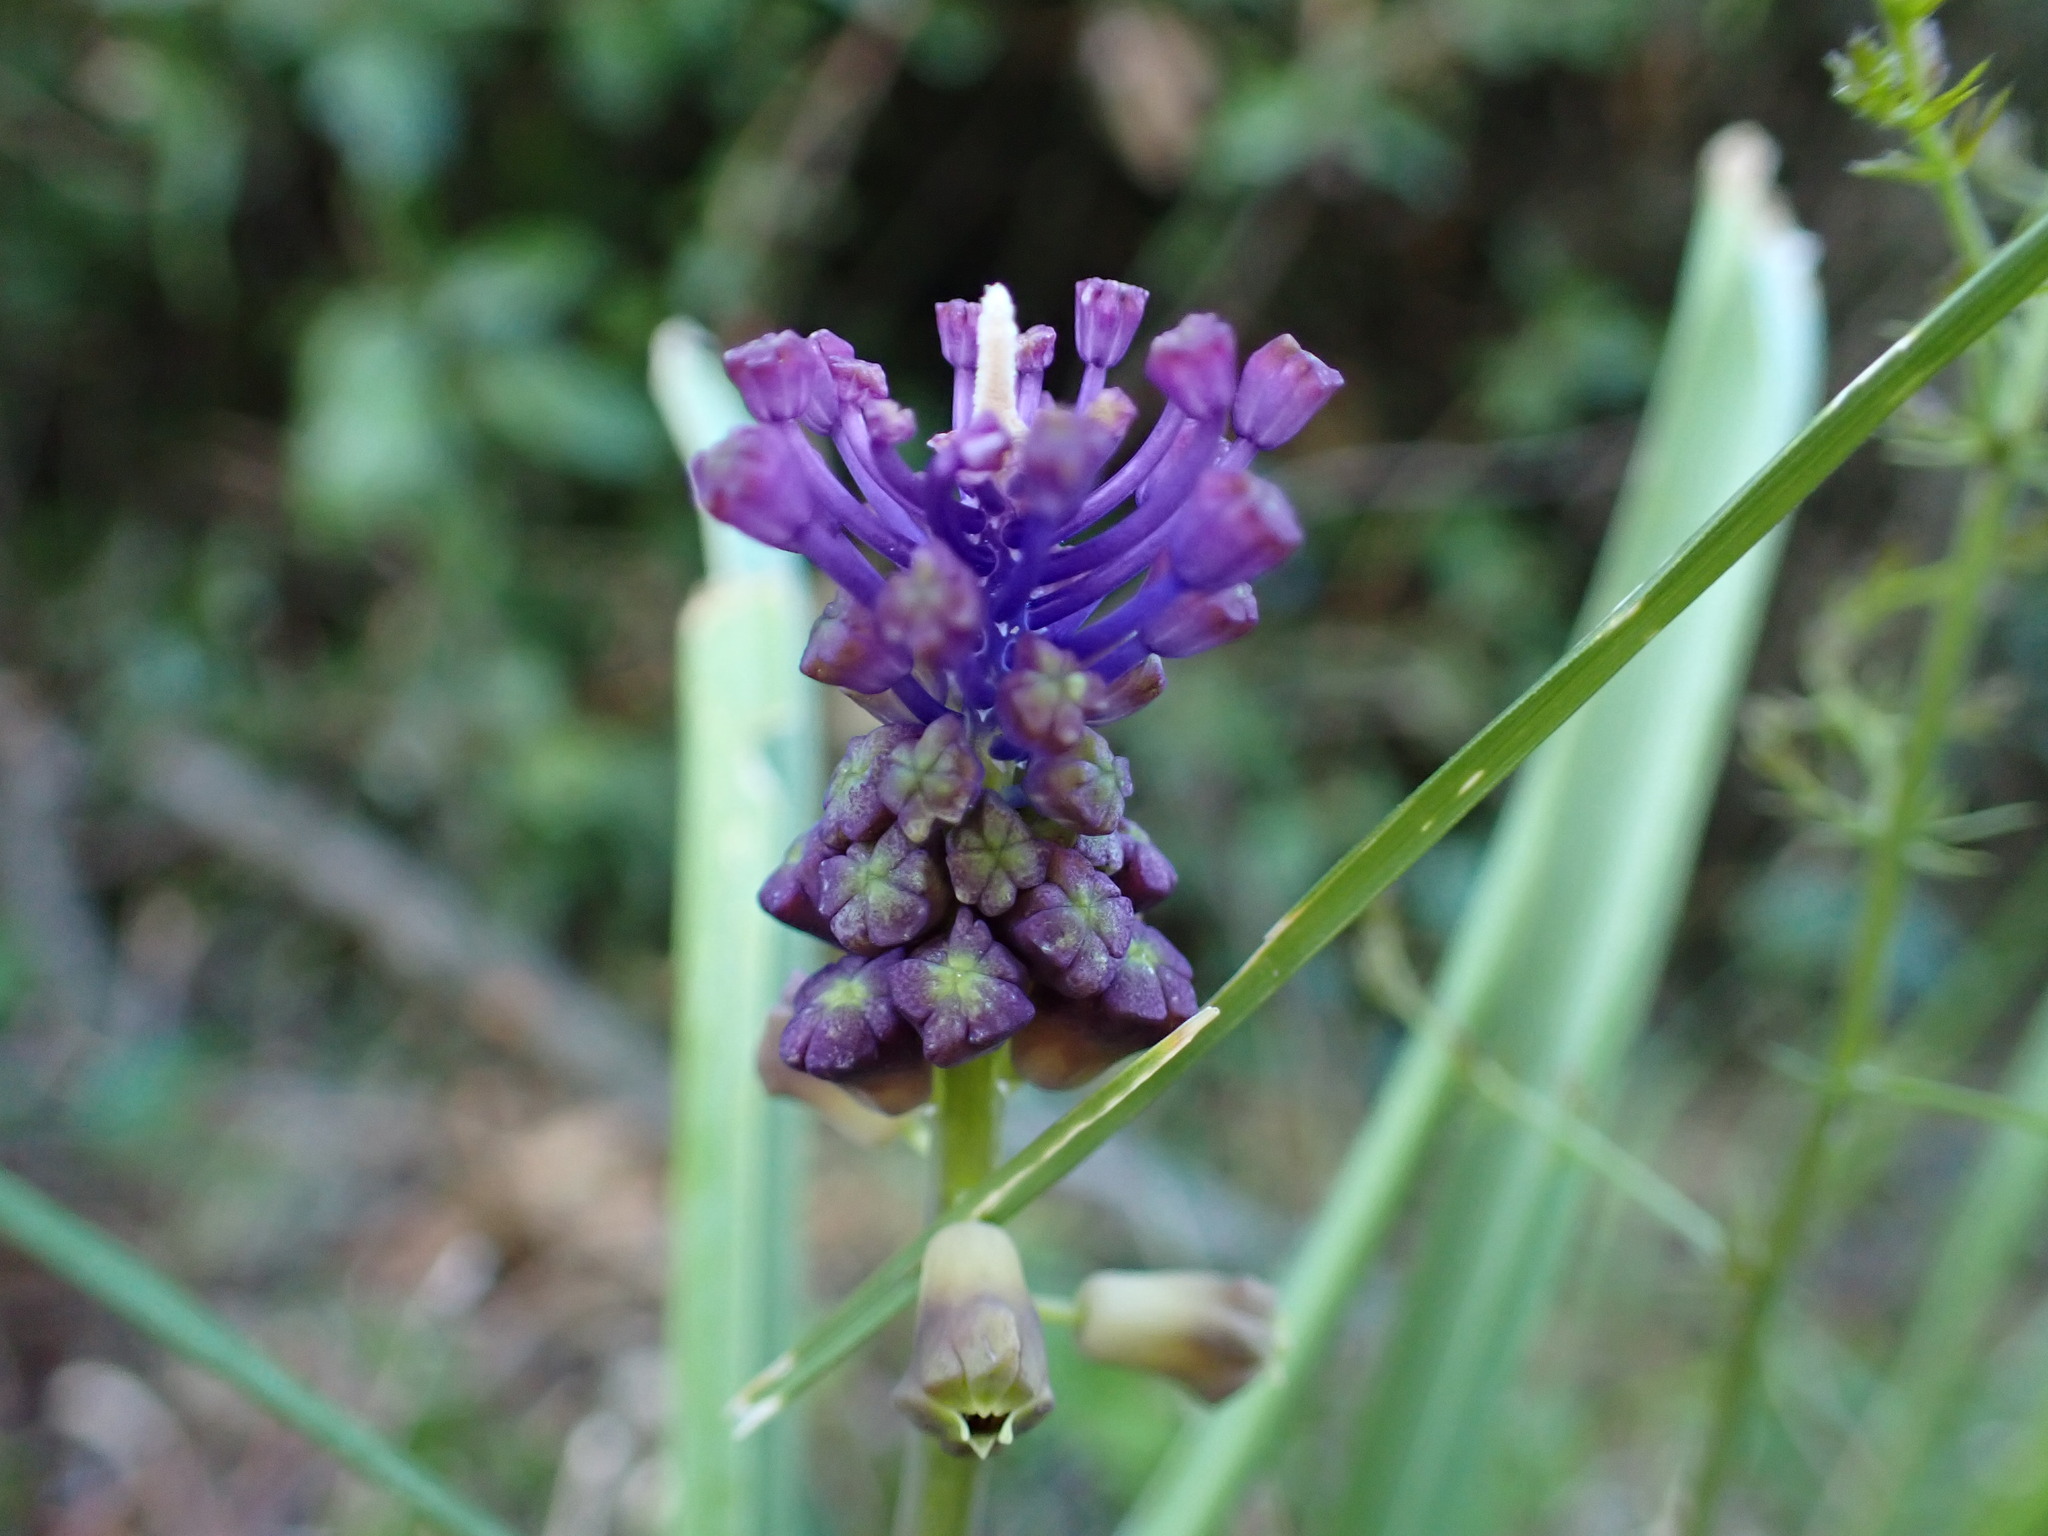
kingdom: Plantae
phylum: Tracheophyta
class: Liliopsida
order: Asparagales
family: Asparagaceae
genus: Muscari
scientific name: Muscari comosum
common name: Tassel hyacinth
